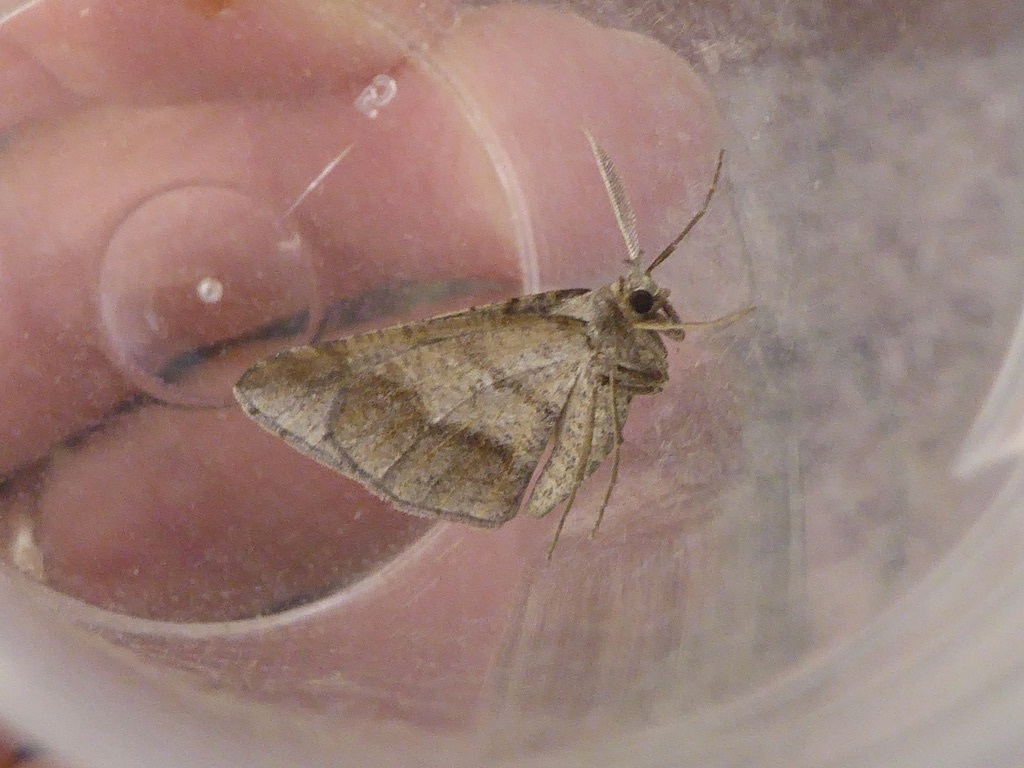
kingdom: Animalia
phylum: Arthropoda
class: Insecta
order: Lepidoptera
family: Geometridae
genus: Isturgia
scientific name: Isturgia spodiaria
